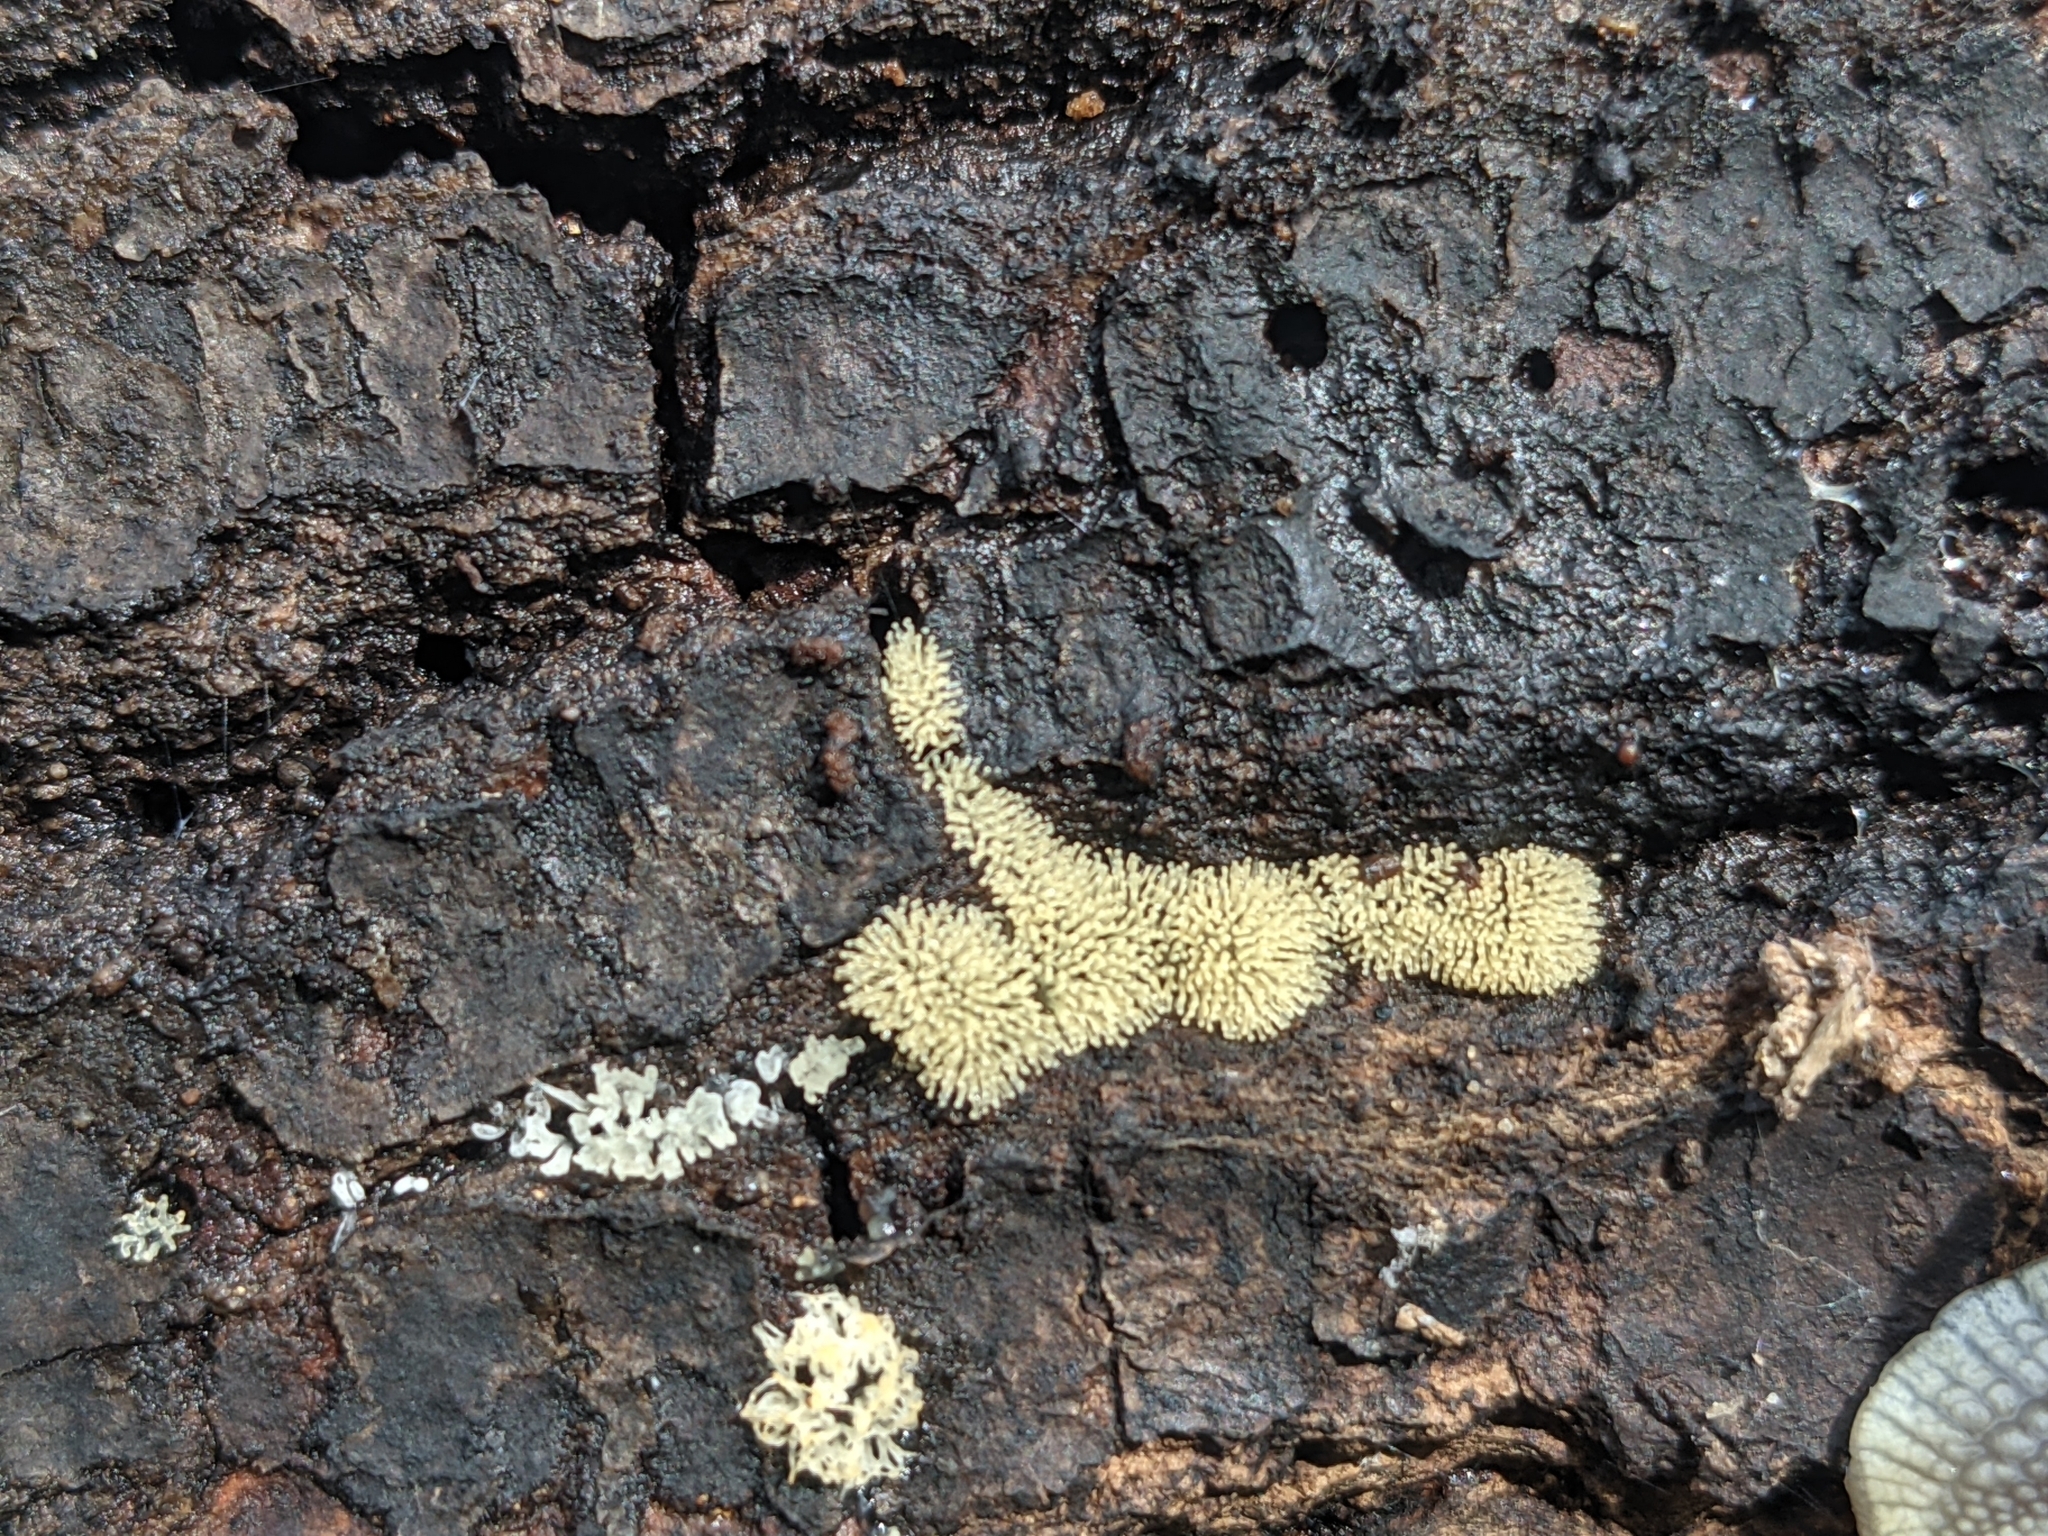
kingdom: Protozoa
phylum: Mycetozoa
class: Protosteliomycetes
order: Ceratiomyxales
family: Ceratiomyxaceae
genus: Ceratiomyxa
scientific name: Ceratiomyxa fruticulosa
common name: Honeycomb coral slime mold
